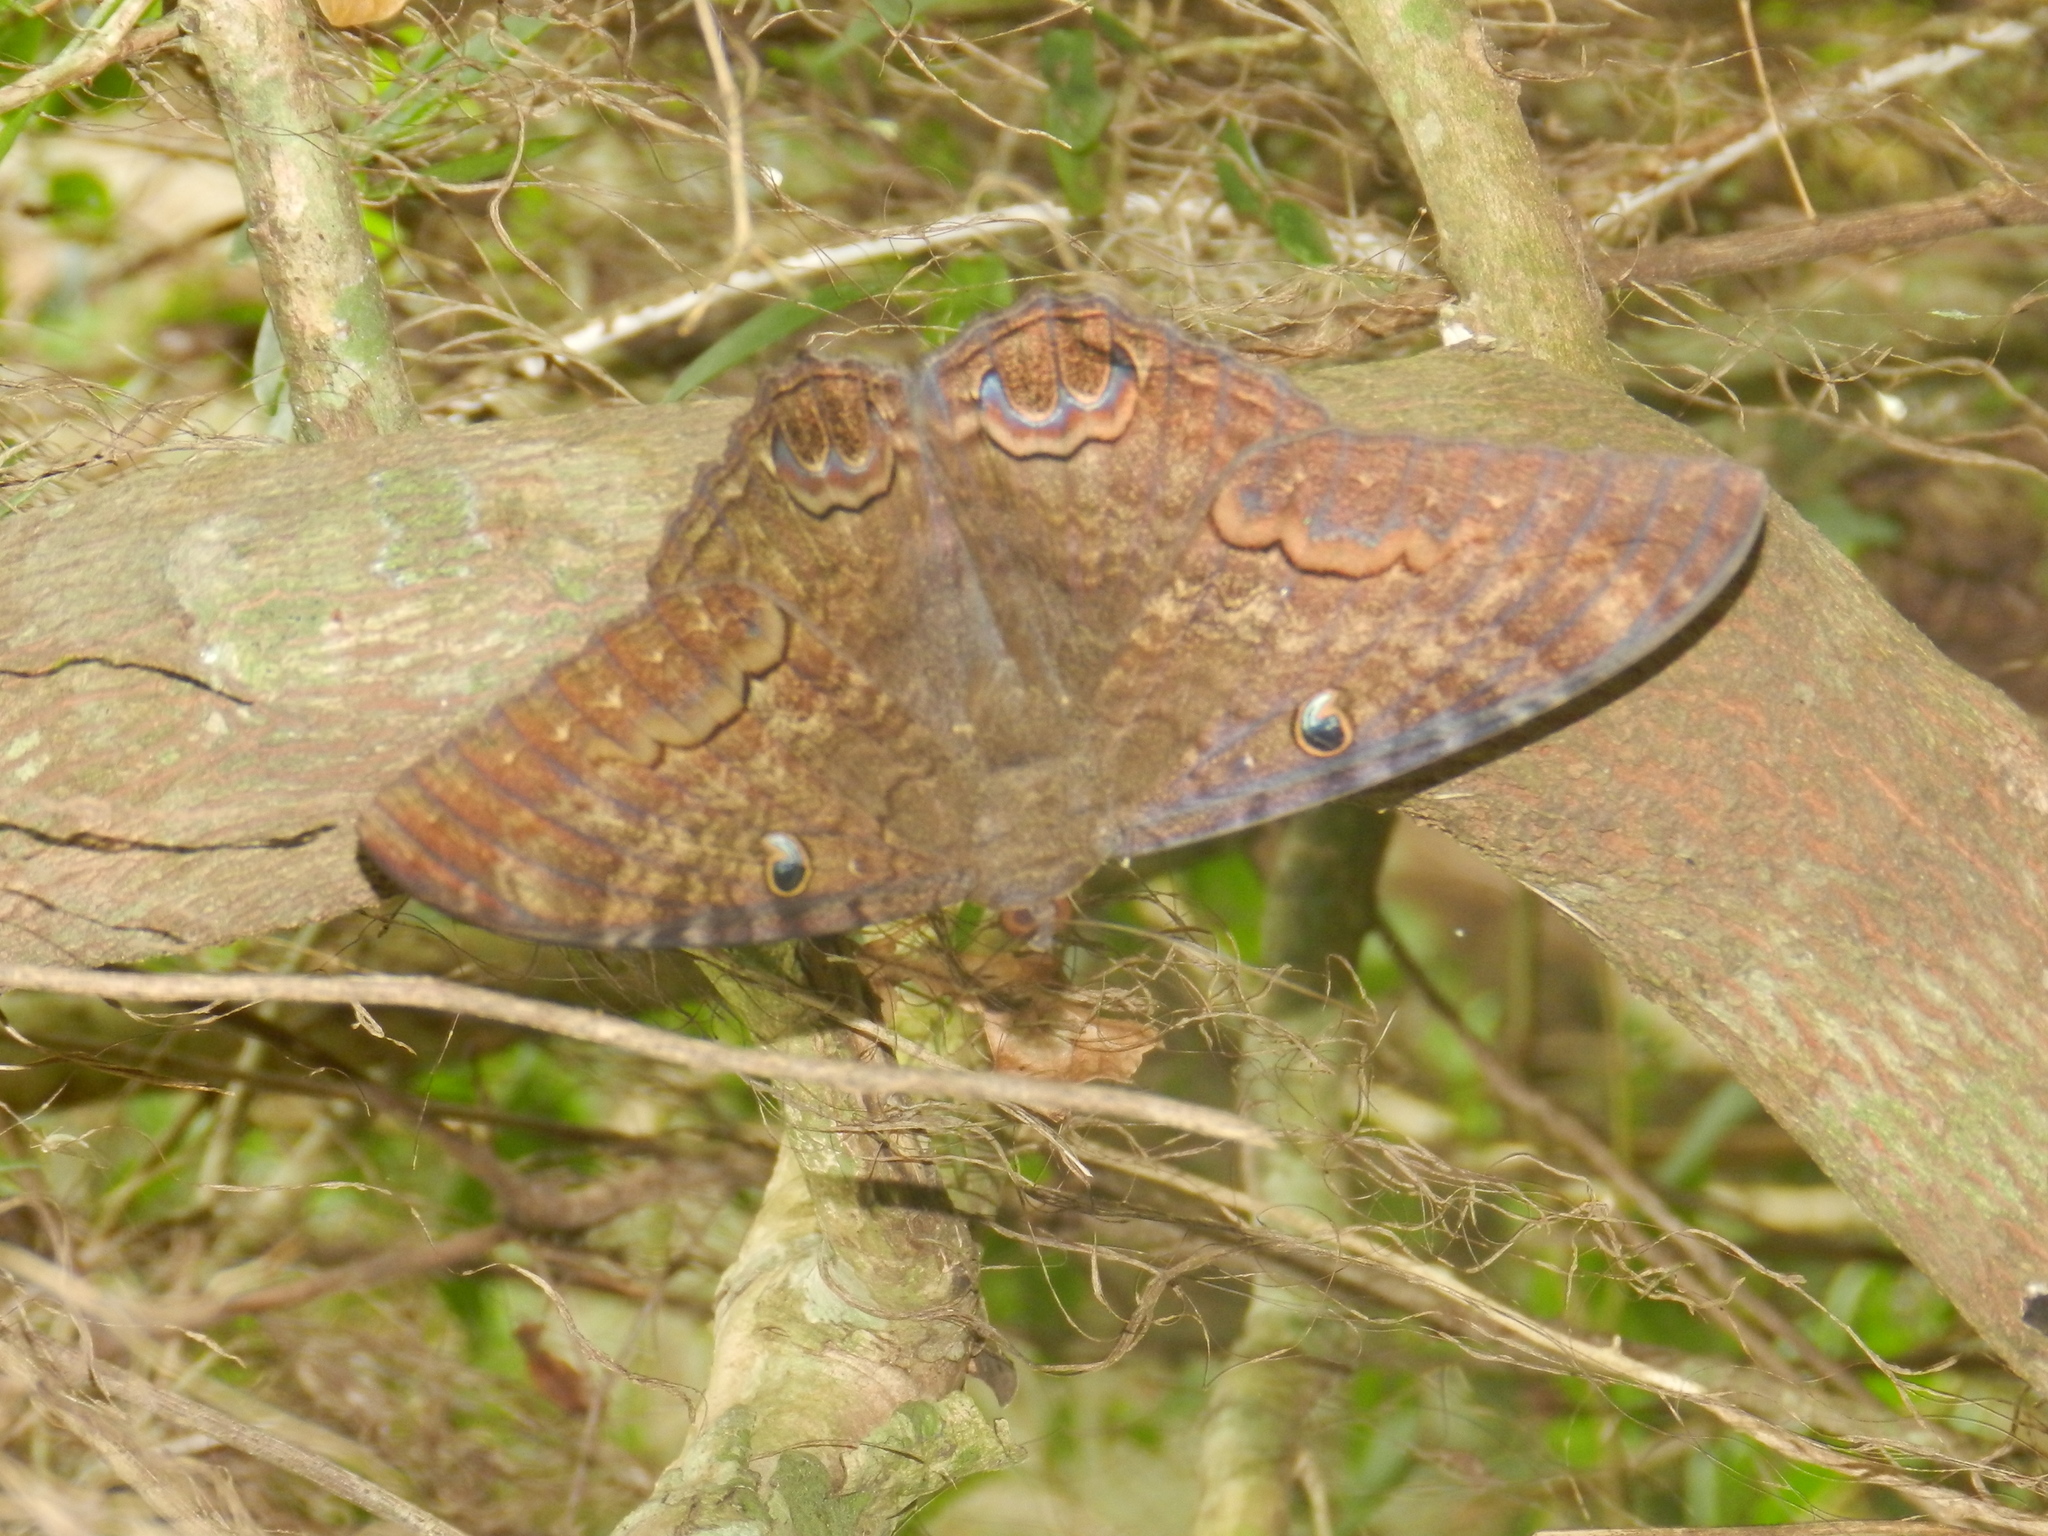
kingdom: Animalia
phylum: Arthropoda
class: Insecta
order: Lepidoptera
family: Erebidae
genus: Ascalapha
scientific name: Ascalapha odorata
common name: Black witch
